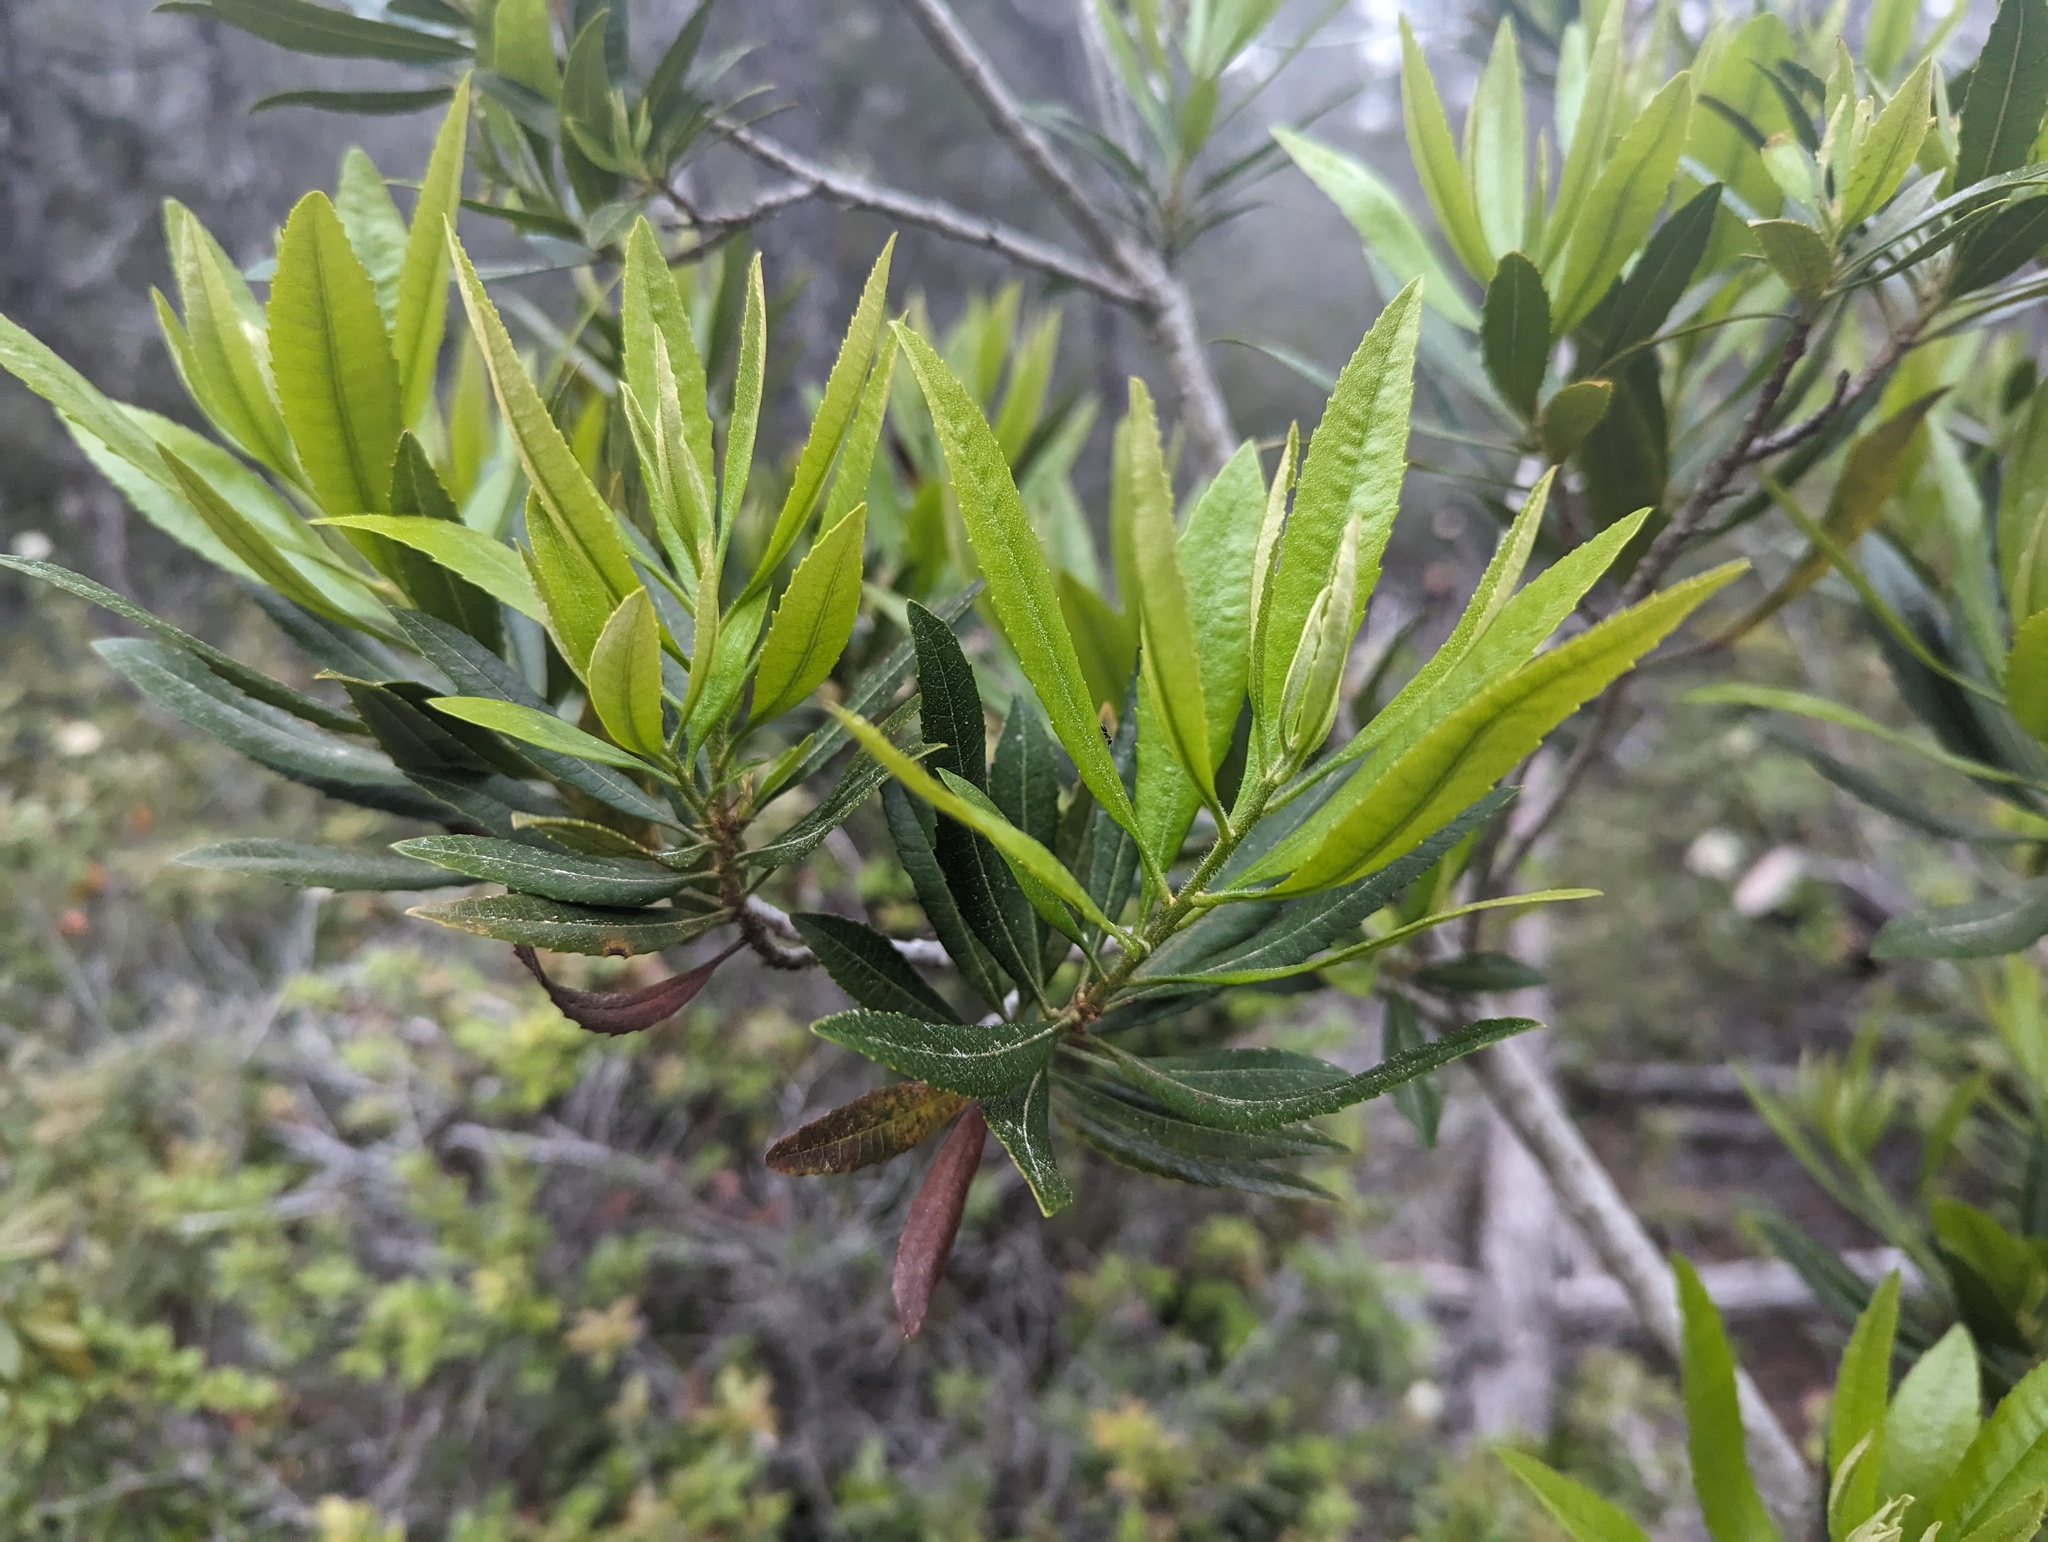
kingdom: Plantae
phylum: Tracheophyta
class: Magnoliopsida
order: Fagales
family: Myricaceae
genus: Morella
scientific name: Morella californica
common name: California wax-myrtle
